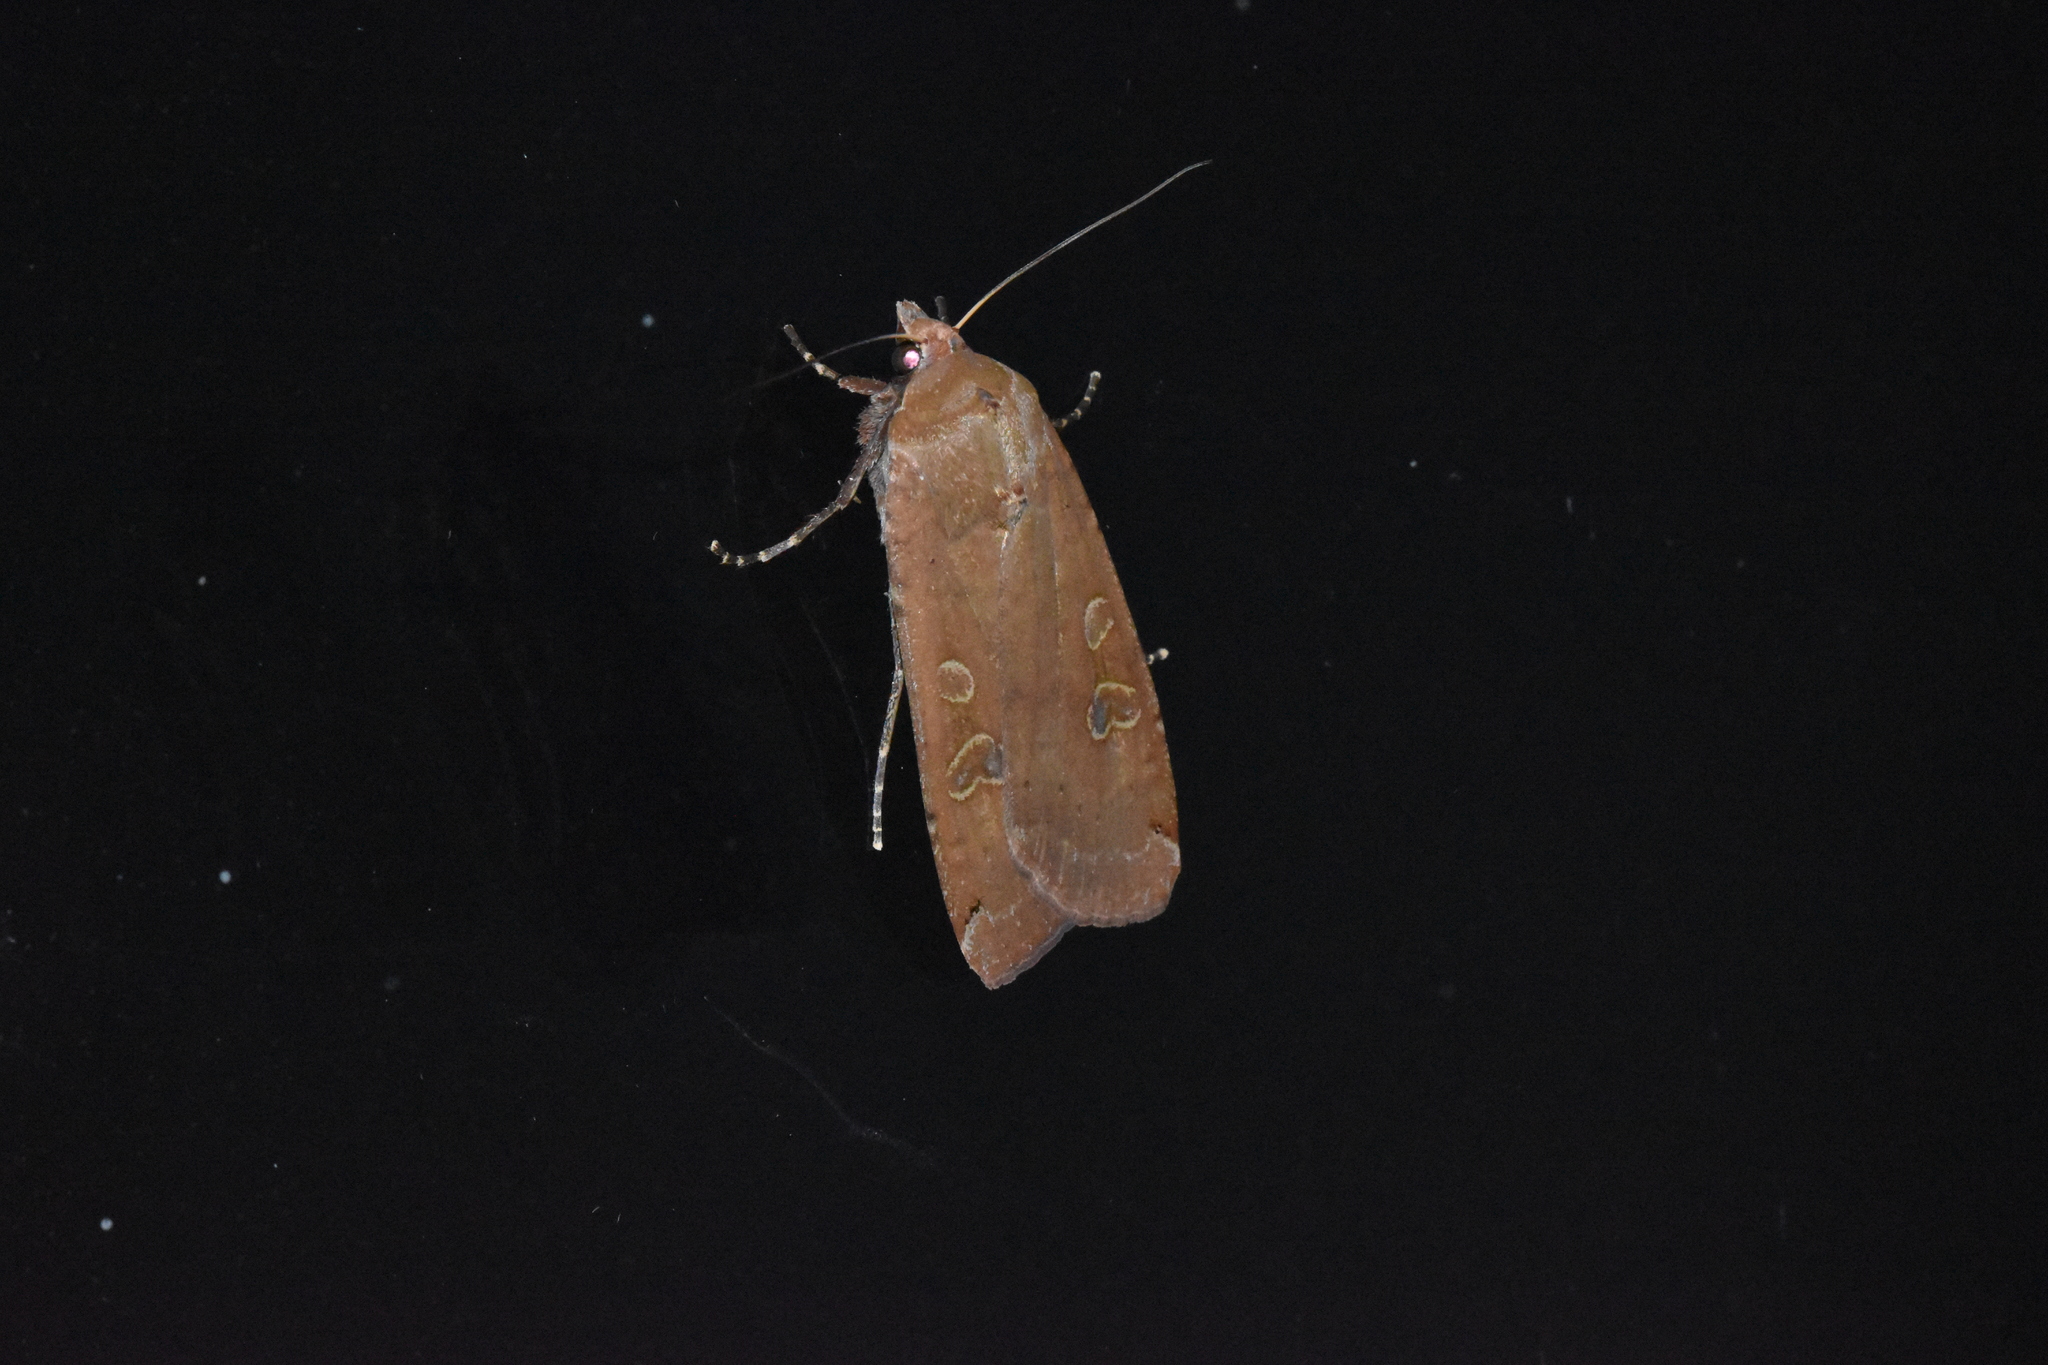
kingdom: Animalia
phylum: Arthropoda
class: Insecta
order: Lepidoptera
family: Noctuidae
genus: Noctua
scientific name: Noctua pronuba
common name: Large yellow underwing
